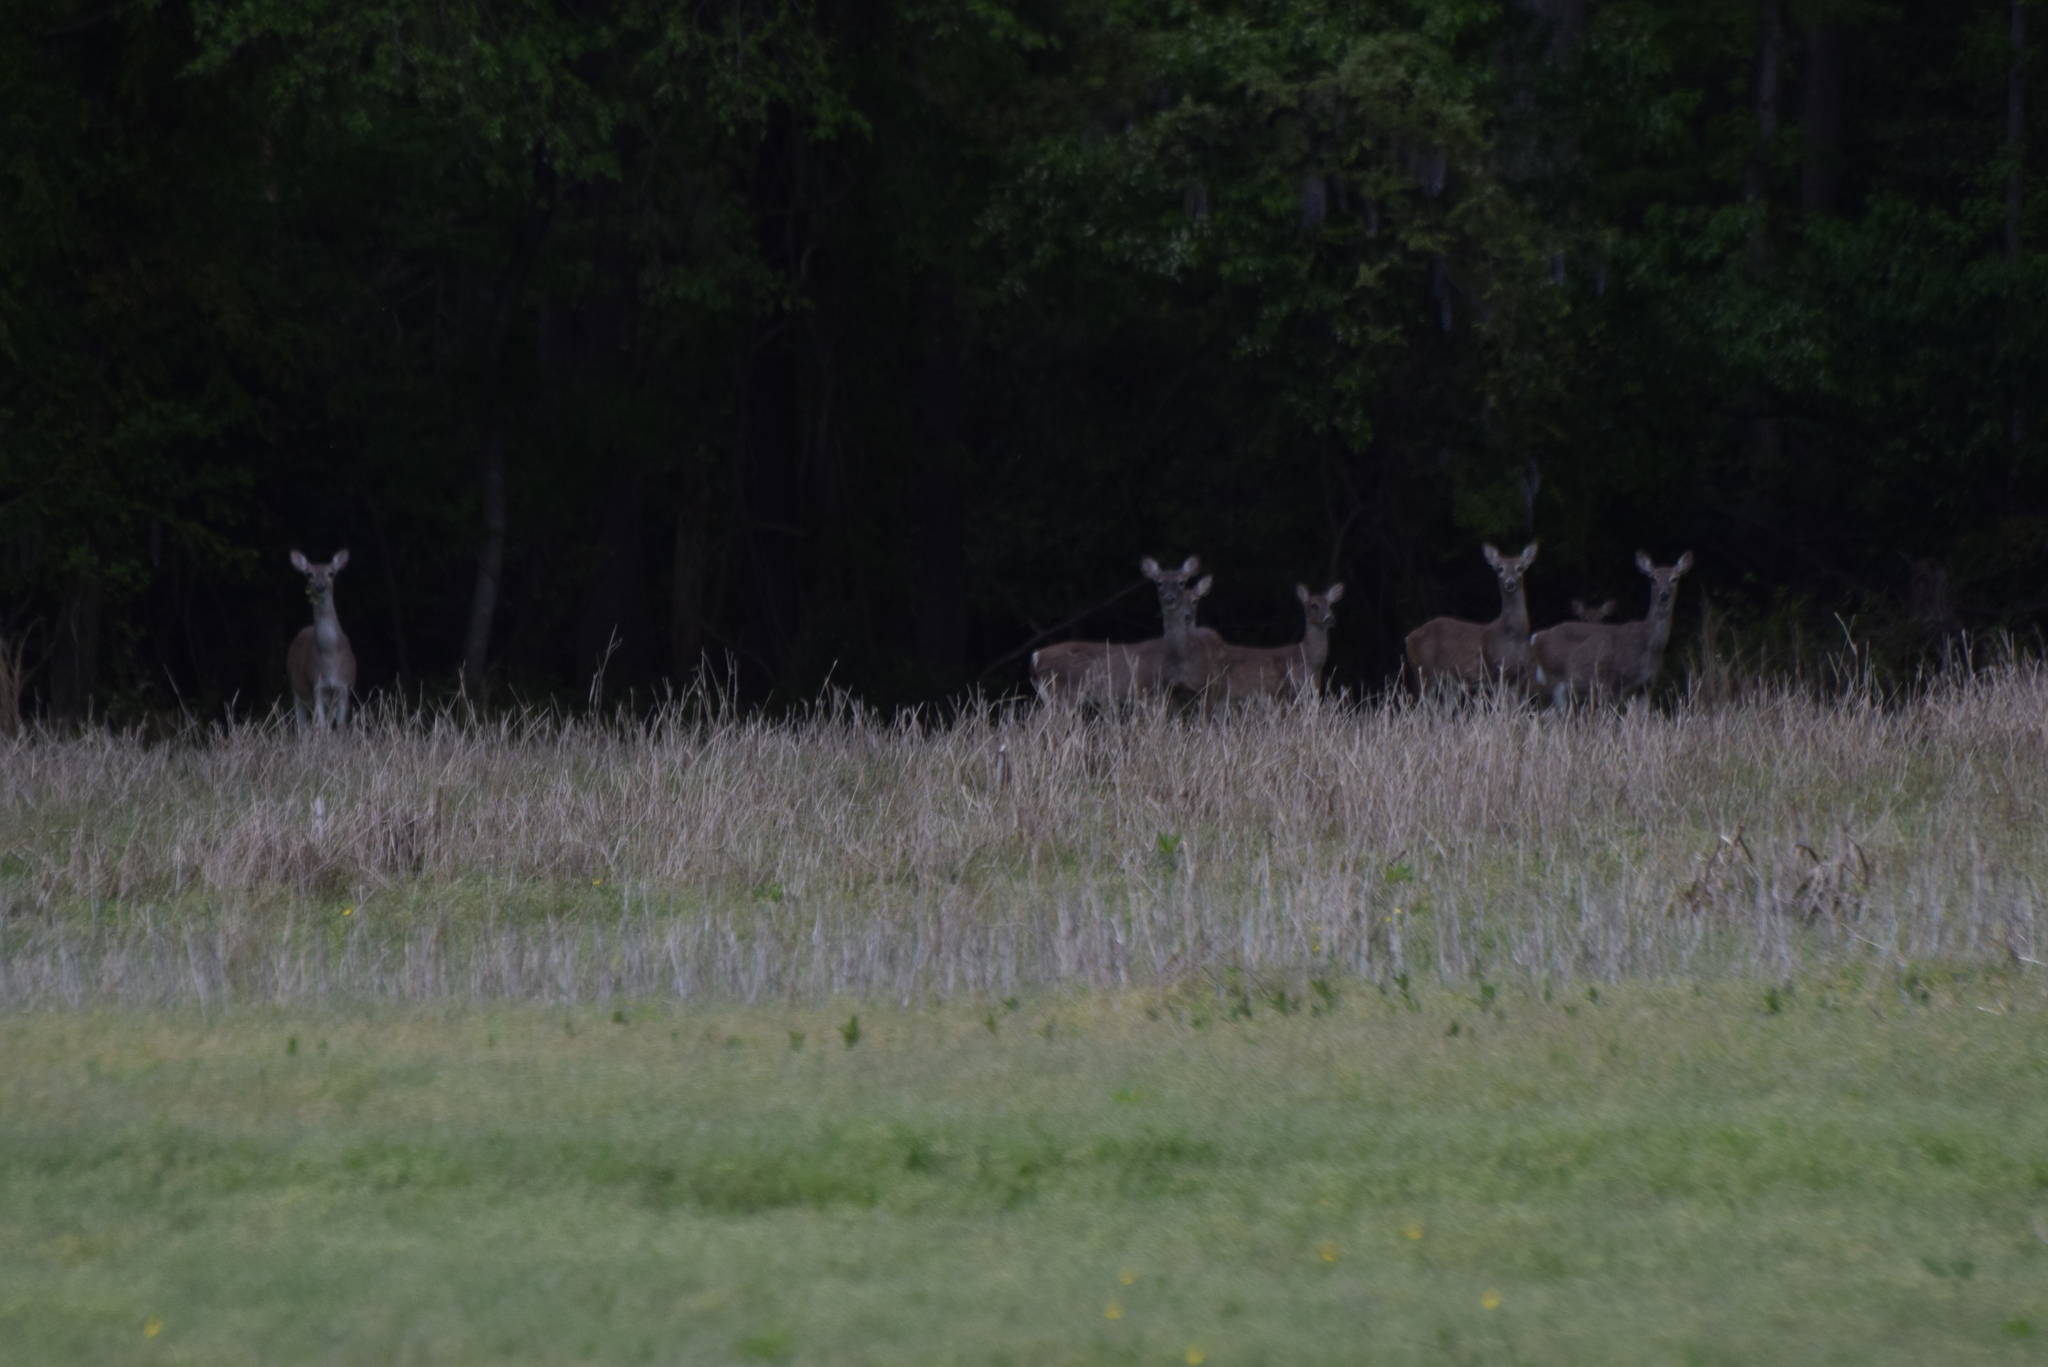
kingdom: Animalia
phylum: Chordata
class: Mammalia
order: Artiodactyla
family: Cervidae
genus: Odocoileus
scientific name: Odocoileus virginianus
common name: White-tailed deer
